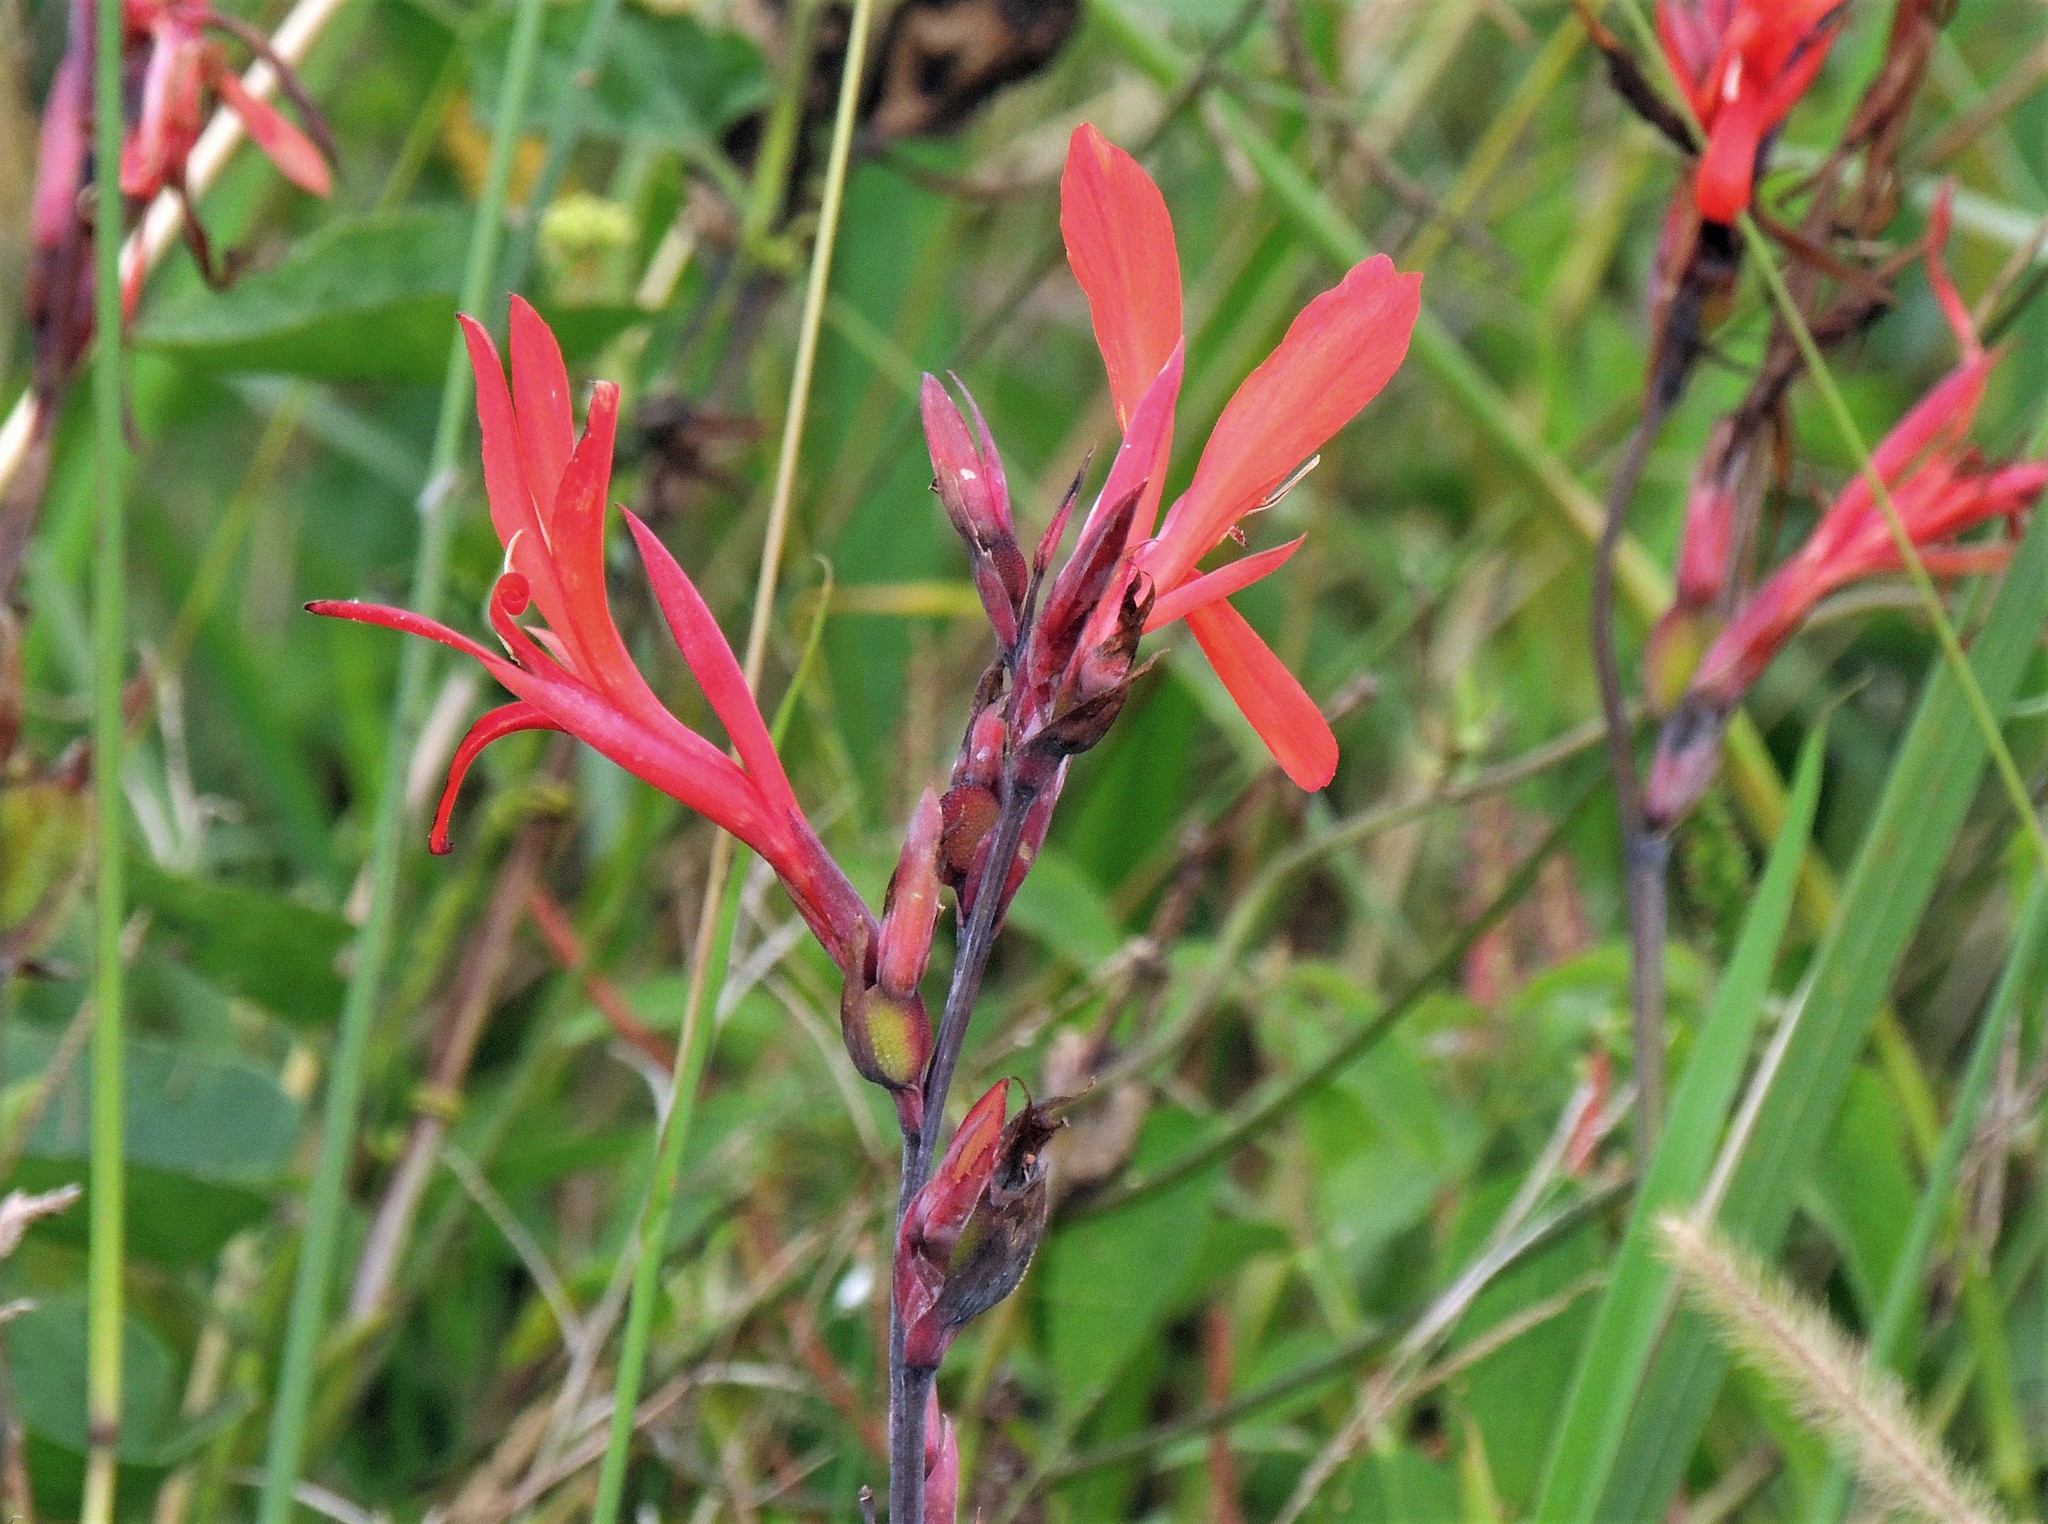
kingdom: Plantae
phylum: Tracheophyta
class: Liliopsida
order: Zingiberales
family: Cannaceae
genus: Canna
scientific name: Canna indica
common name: Indian shot
